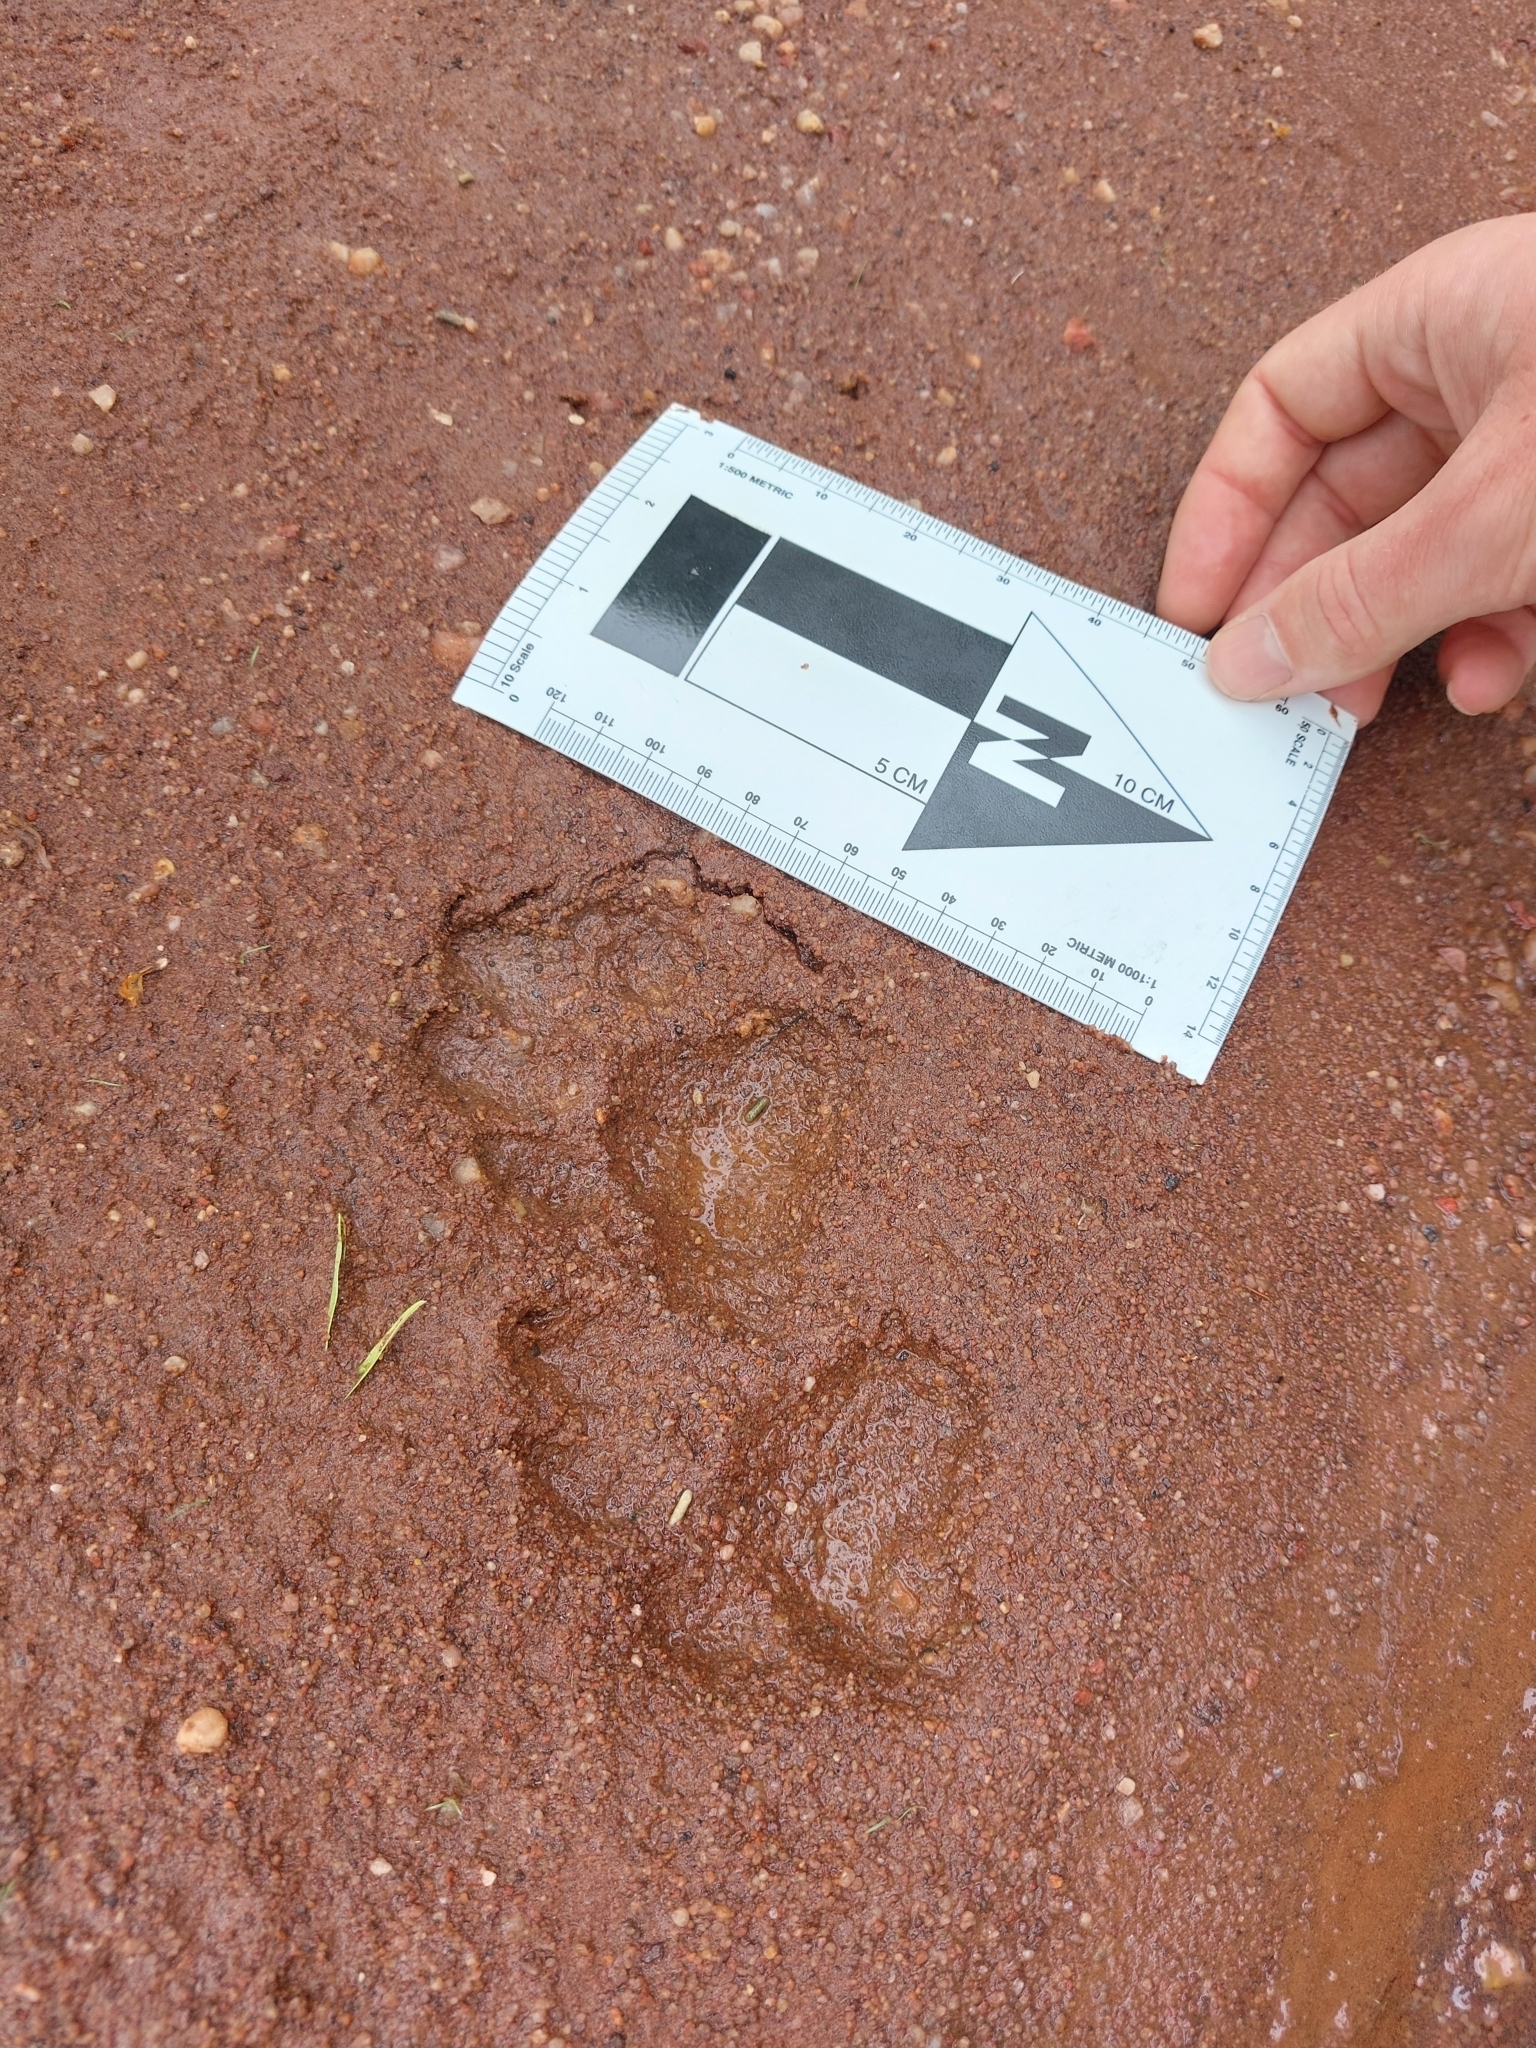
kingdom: Animalia
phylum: Chordata
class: Mammalia
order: Carnivora
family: Felidae
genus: Panthera
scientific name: Panthera pardus
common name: Leopard
